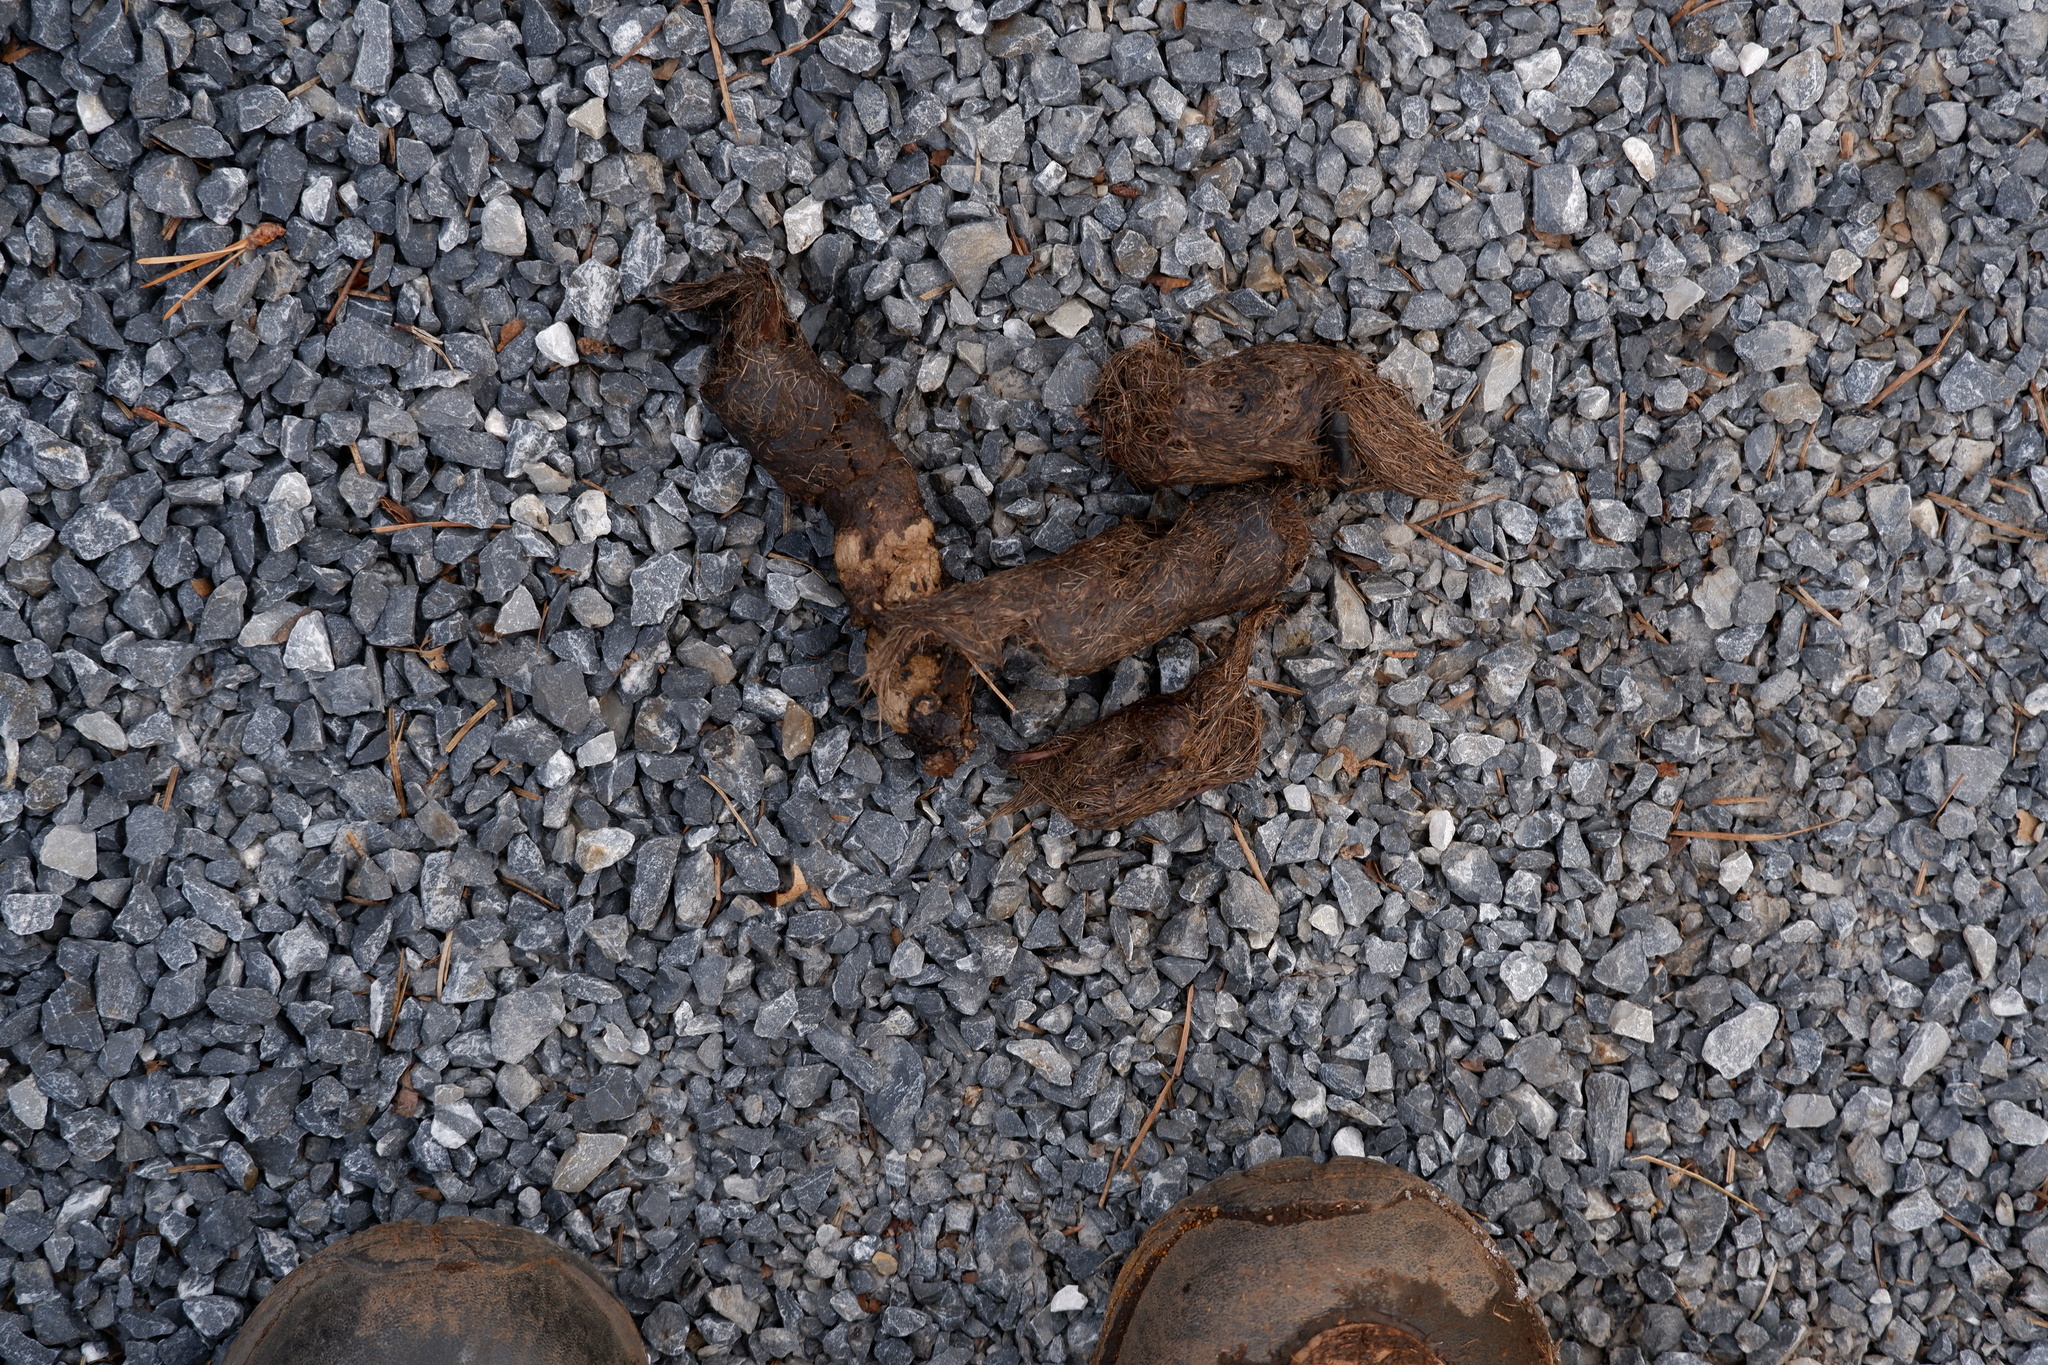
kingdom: Animalia
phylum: Chordata
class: Mammalia
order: Carnivora
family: Canidae
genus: Canis
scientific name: Canis latrans
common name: Coyote
